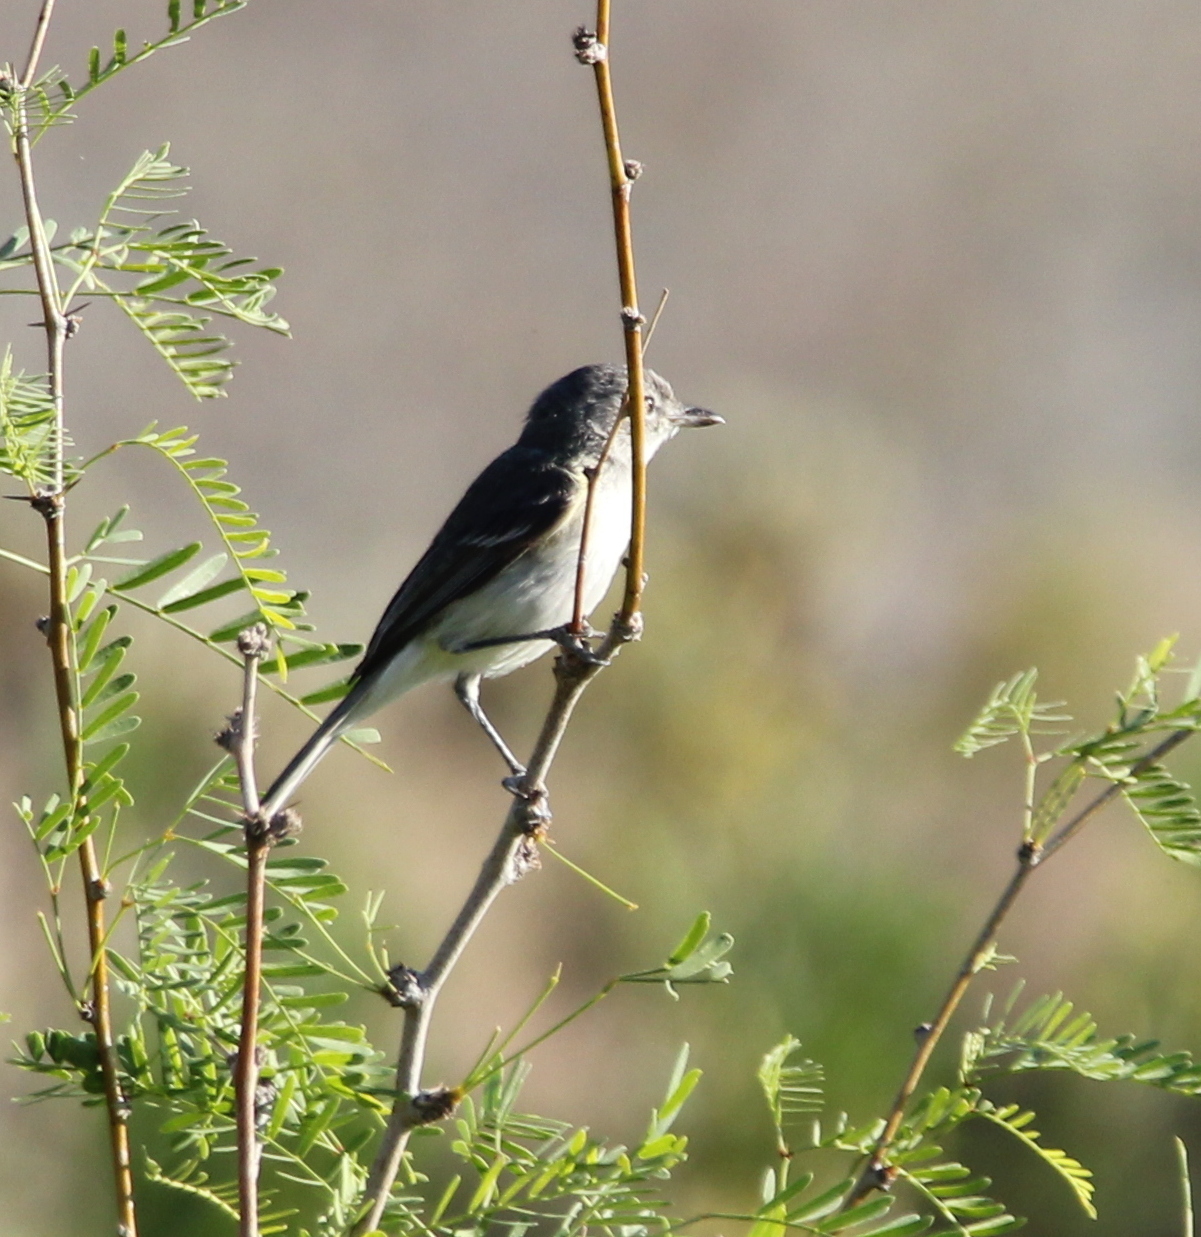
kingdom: Animalia
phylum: Chordata
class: Aves
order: Passeriformes
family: Vireonidae
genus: Vireo
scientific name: Vireo bellii
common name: Bell's vireo
